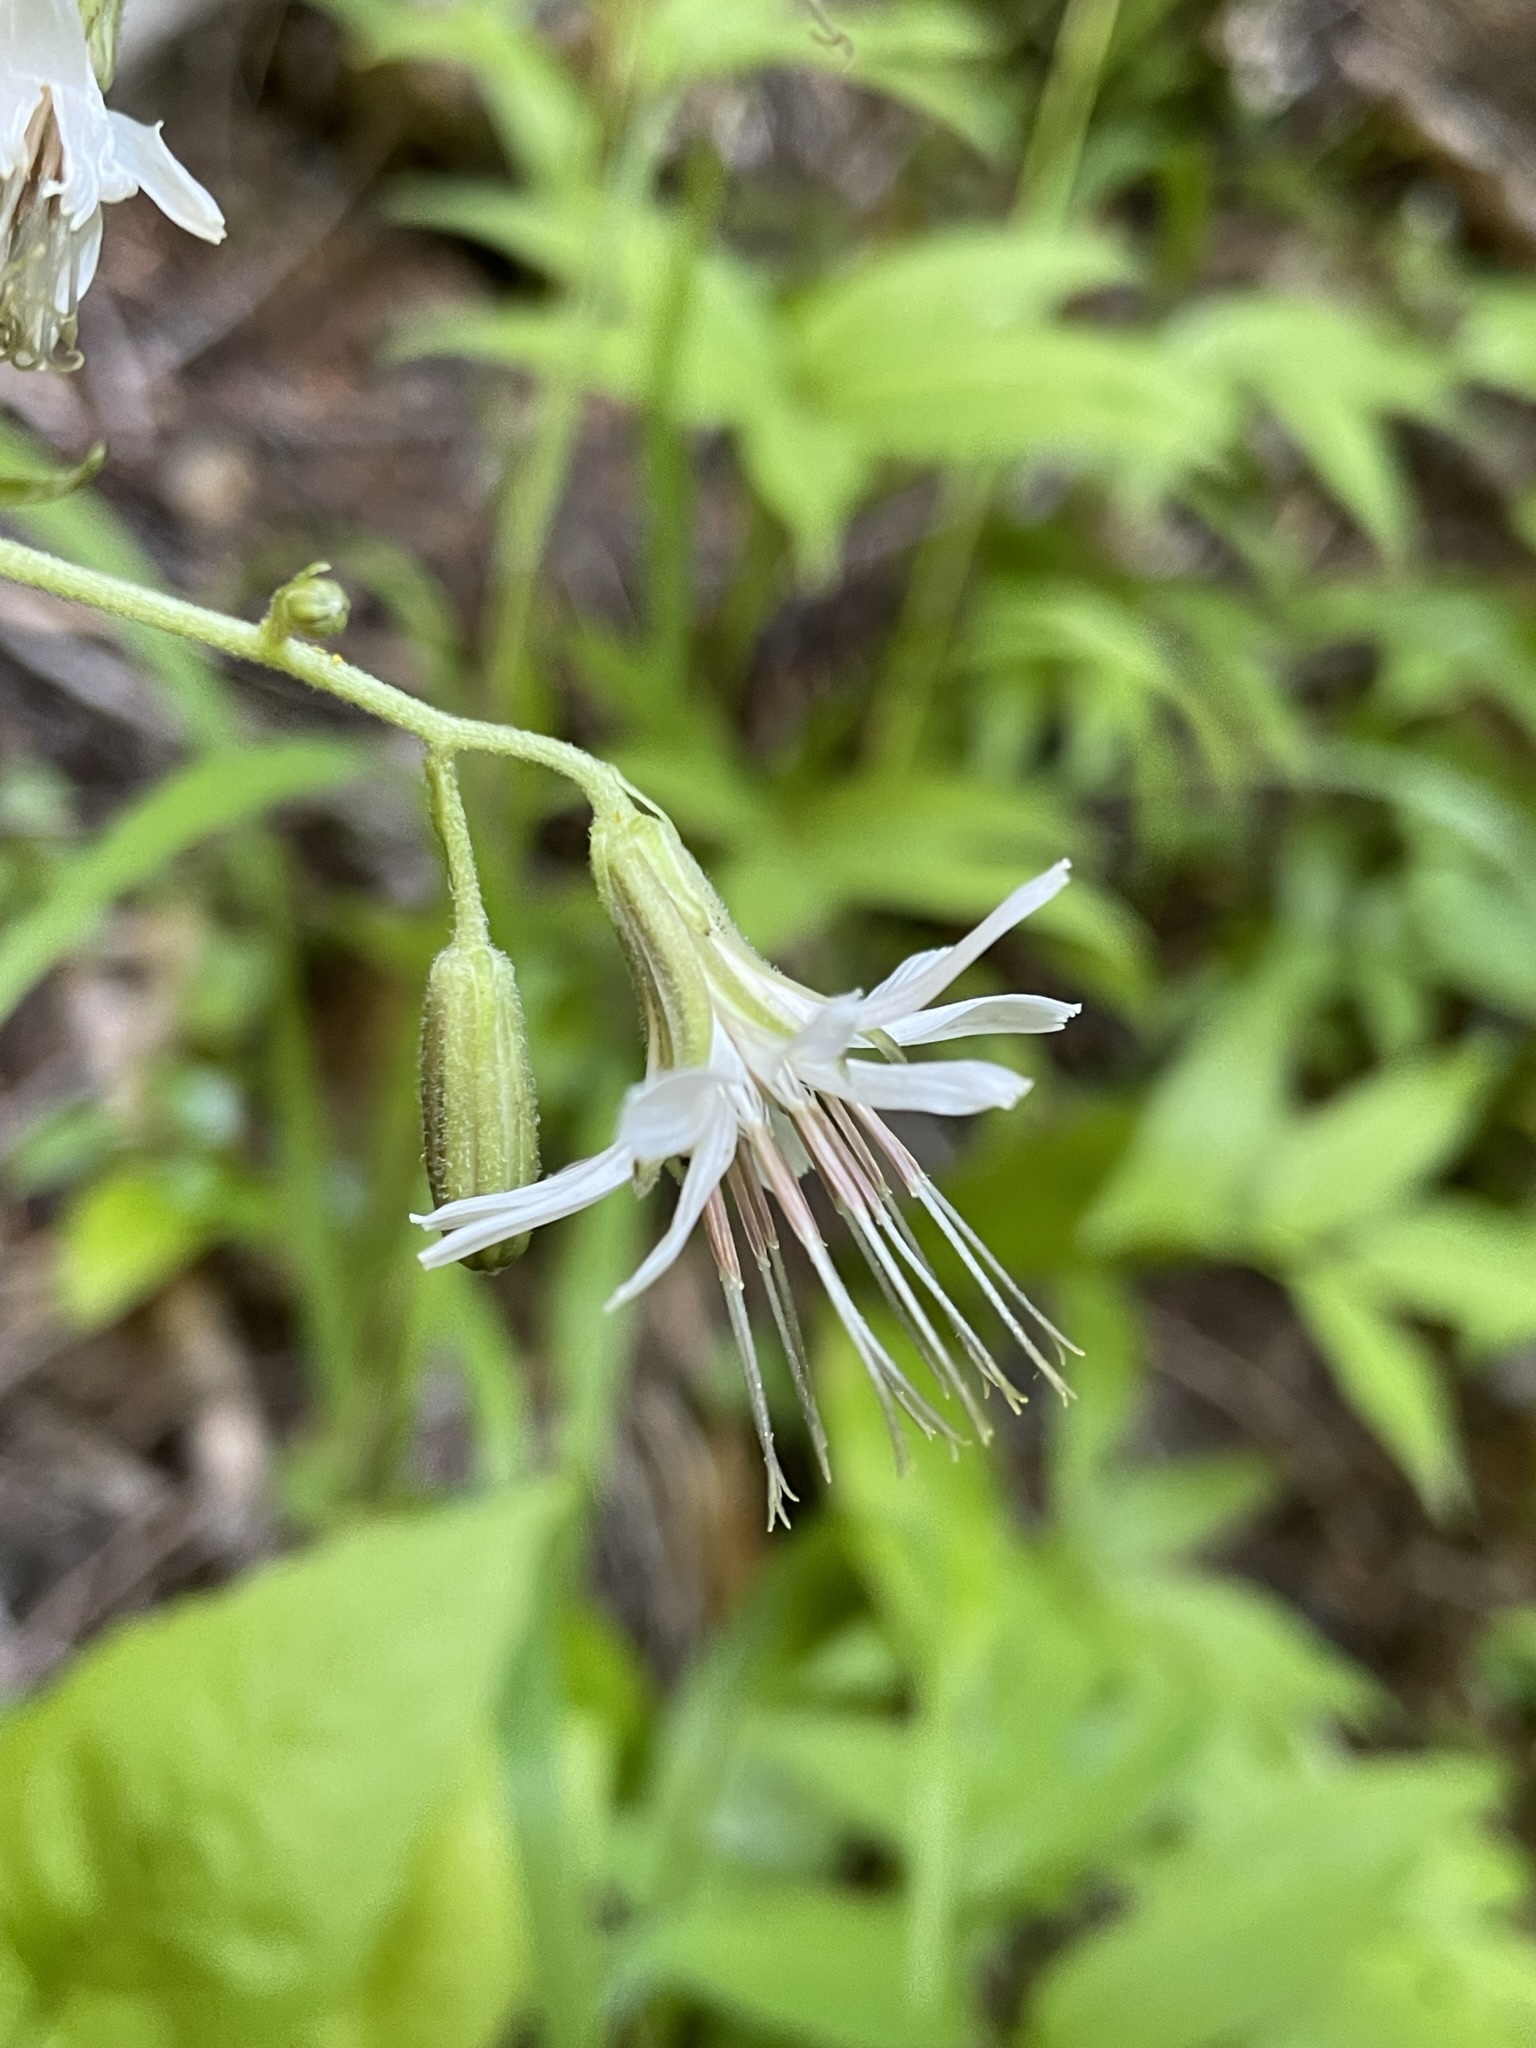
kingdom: Plantae
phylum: Tracheophyta
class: Magnoliopsida
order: Asterales
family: Asteraceae
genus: Nabalus
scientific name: Nabalus hastatus
